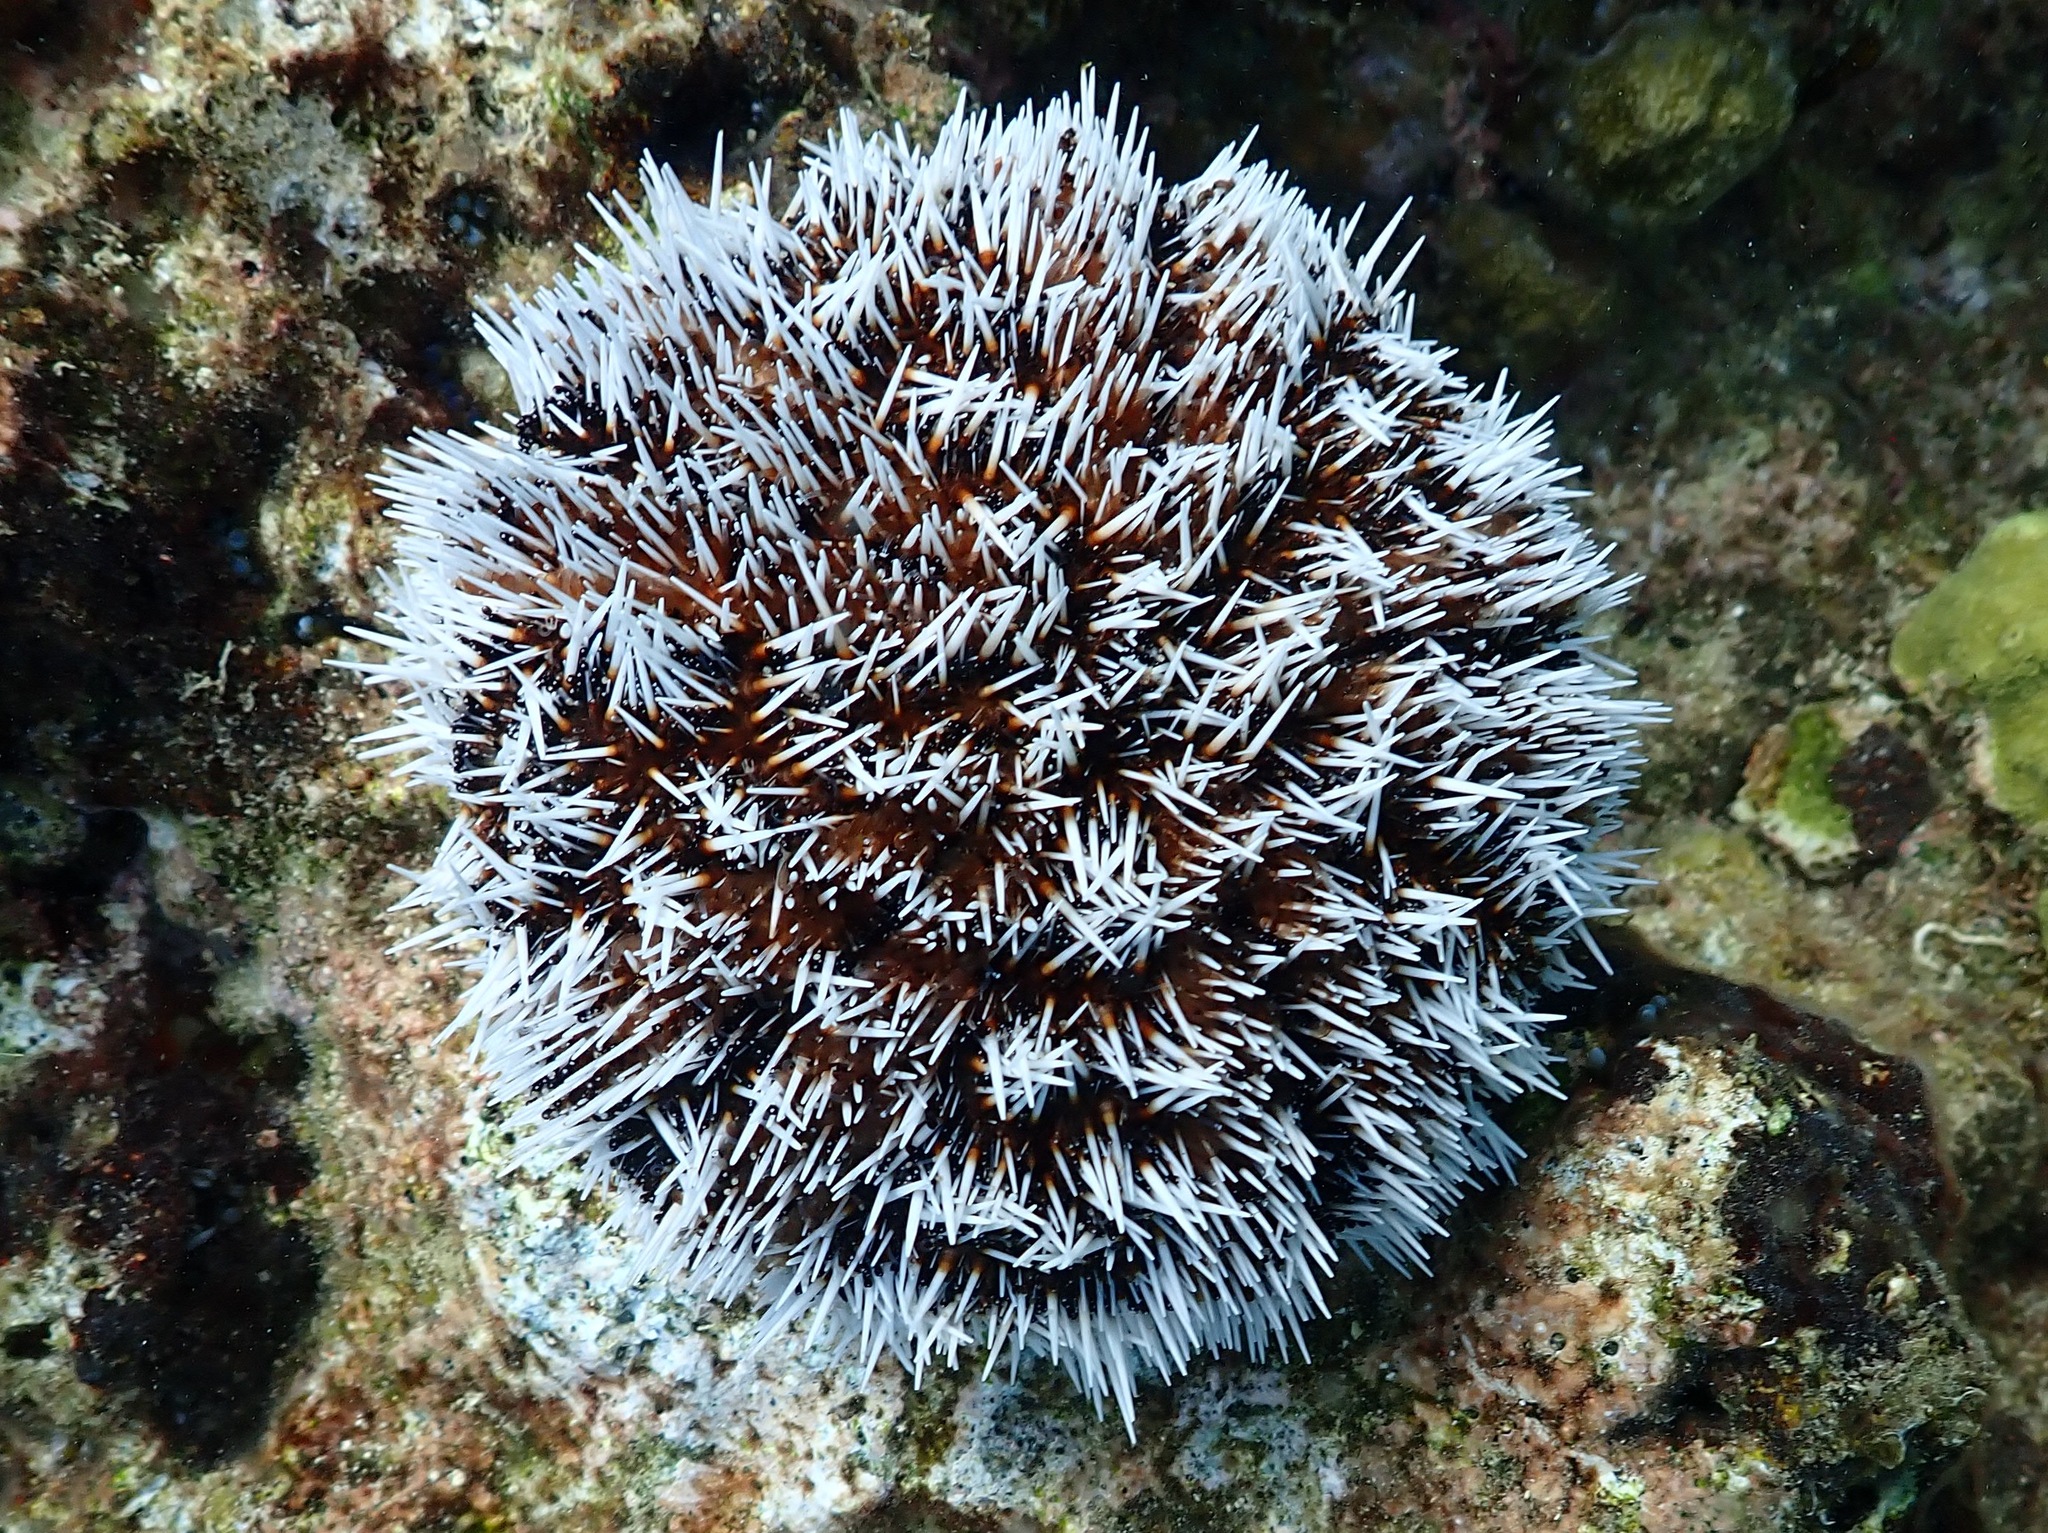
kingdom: Animalia
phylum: Echinodermata
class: Echinoidea
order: Camarodonta
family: Toxopneustidae
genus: Tripneustes
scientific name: Tripneustes ventricosus
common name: West indian sea egg
